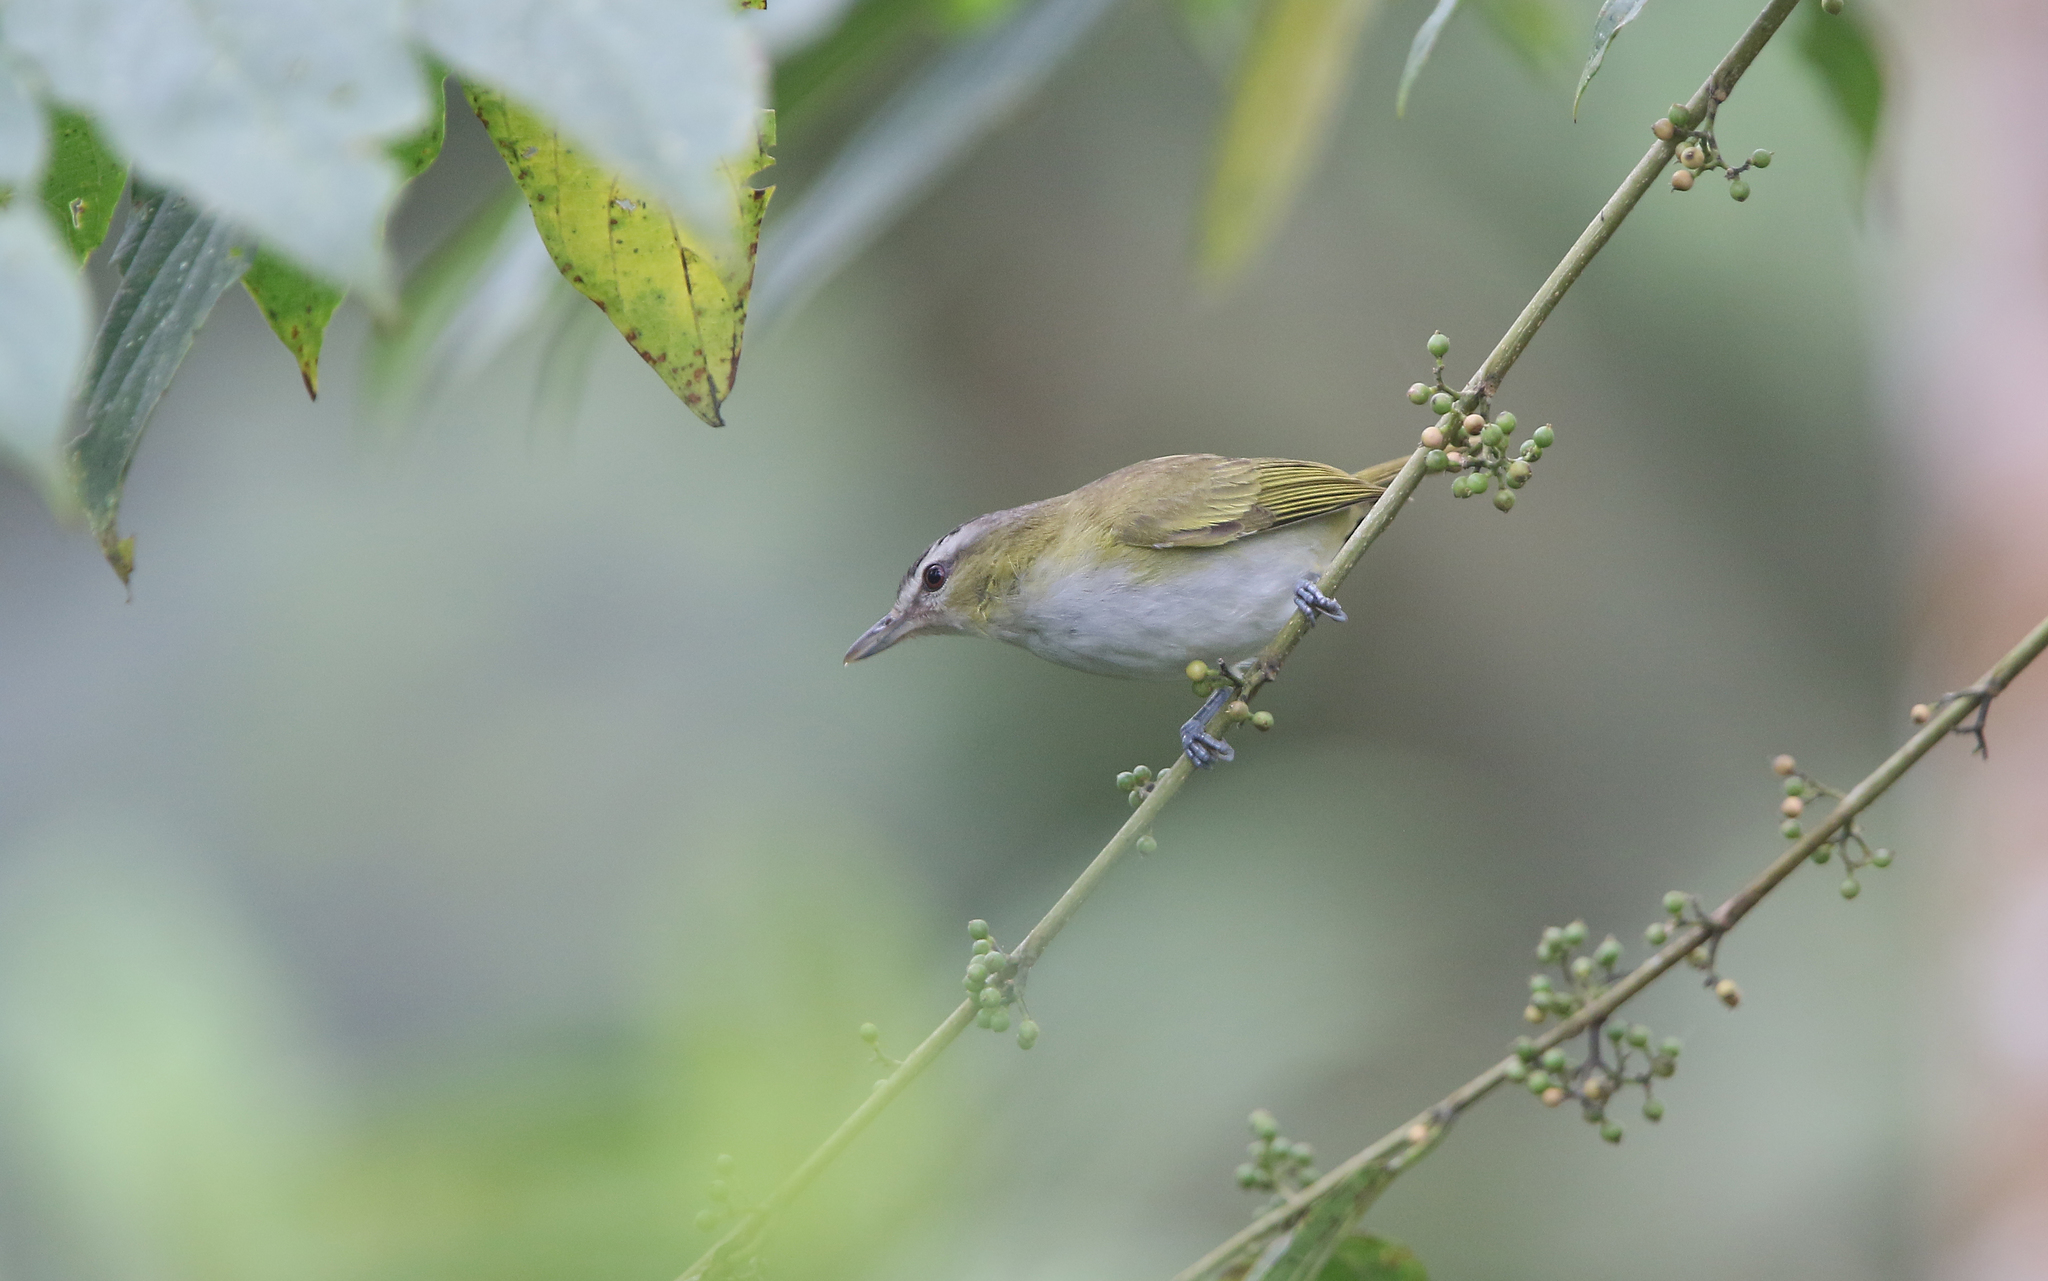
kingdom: Animalia
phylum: Chordata
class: Aves
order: Passeriformes
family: Vireonidae
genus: Vireo
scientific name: Vireo olivaceus
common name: Red-eyed vireo
